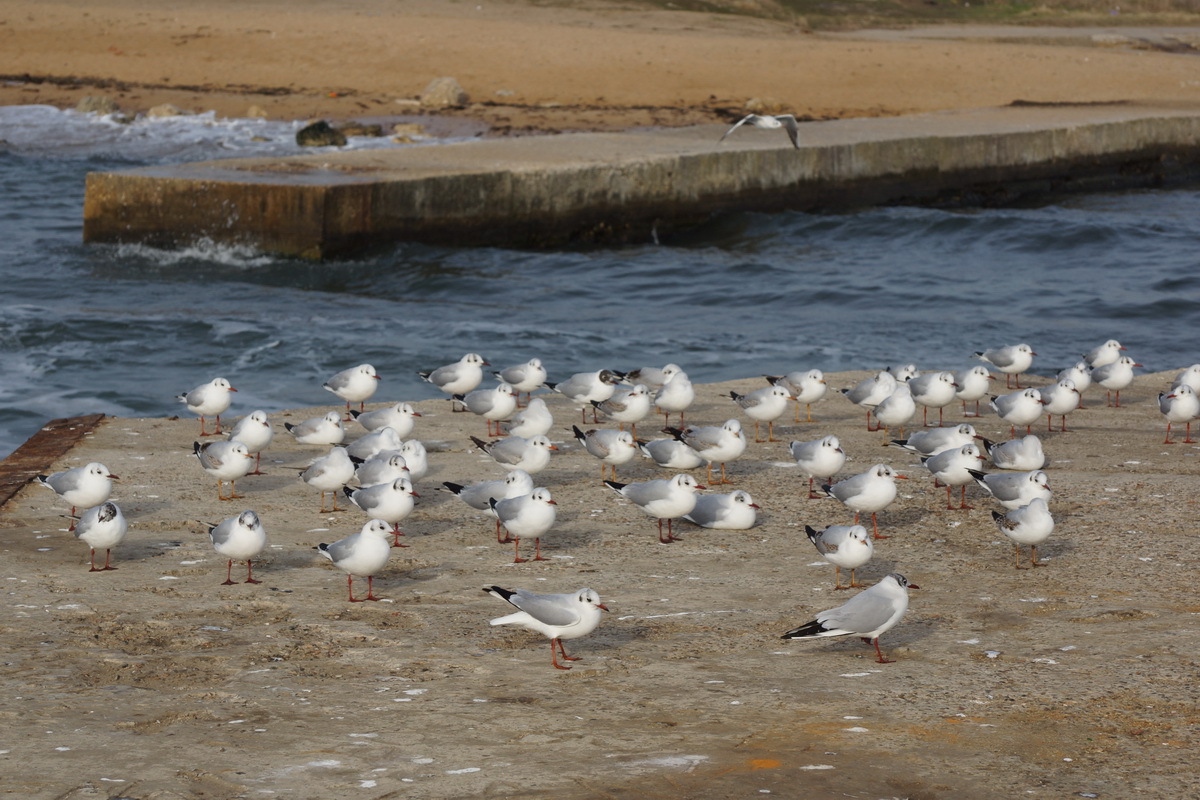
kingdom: Animalia
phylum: Chordata
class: Aves
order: Charadriiformes
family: Laridae
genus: Chroicocephalus
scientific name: Chroicocephalus ridibundus
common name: Black-headed gull
